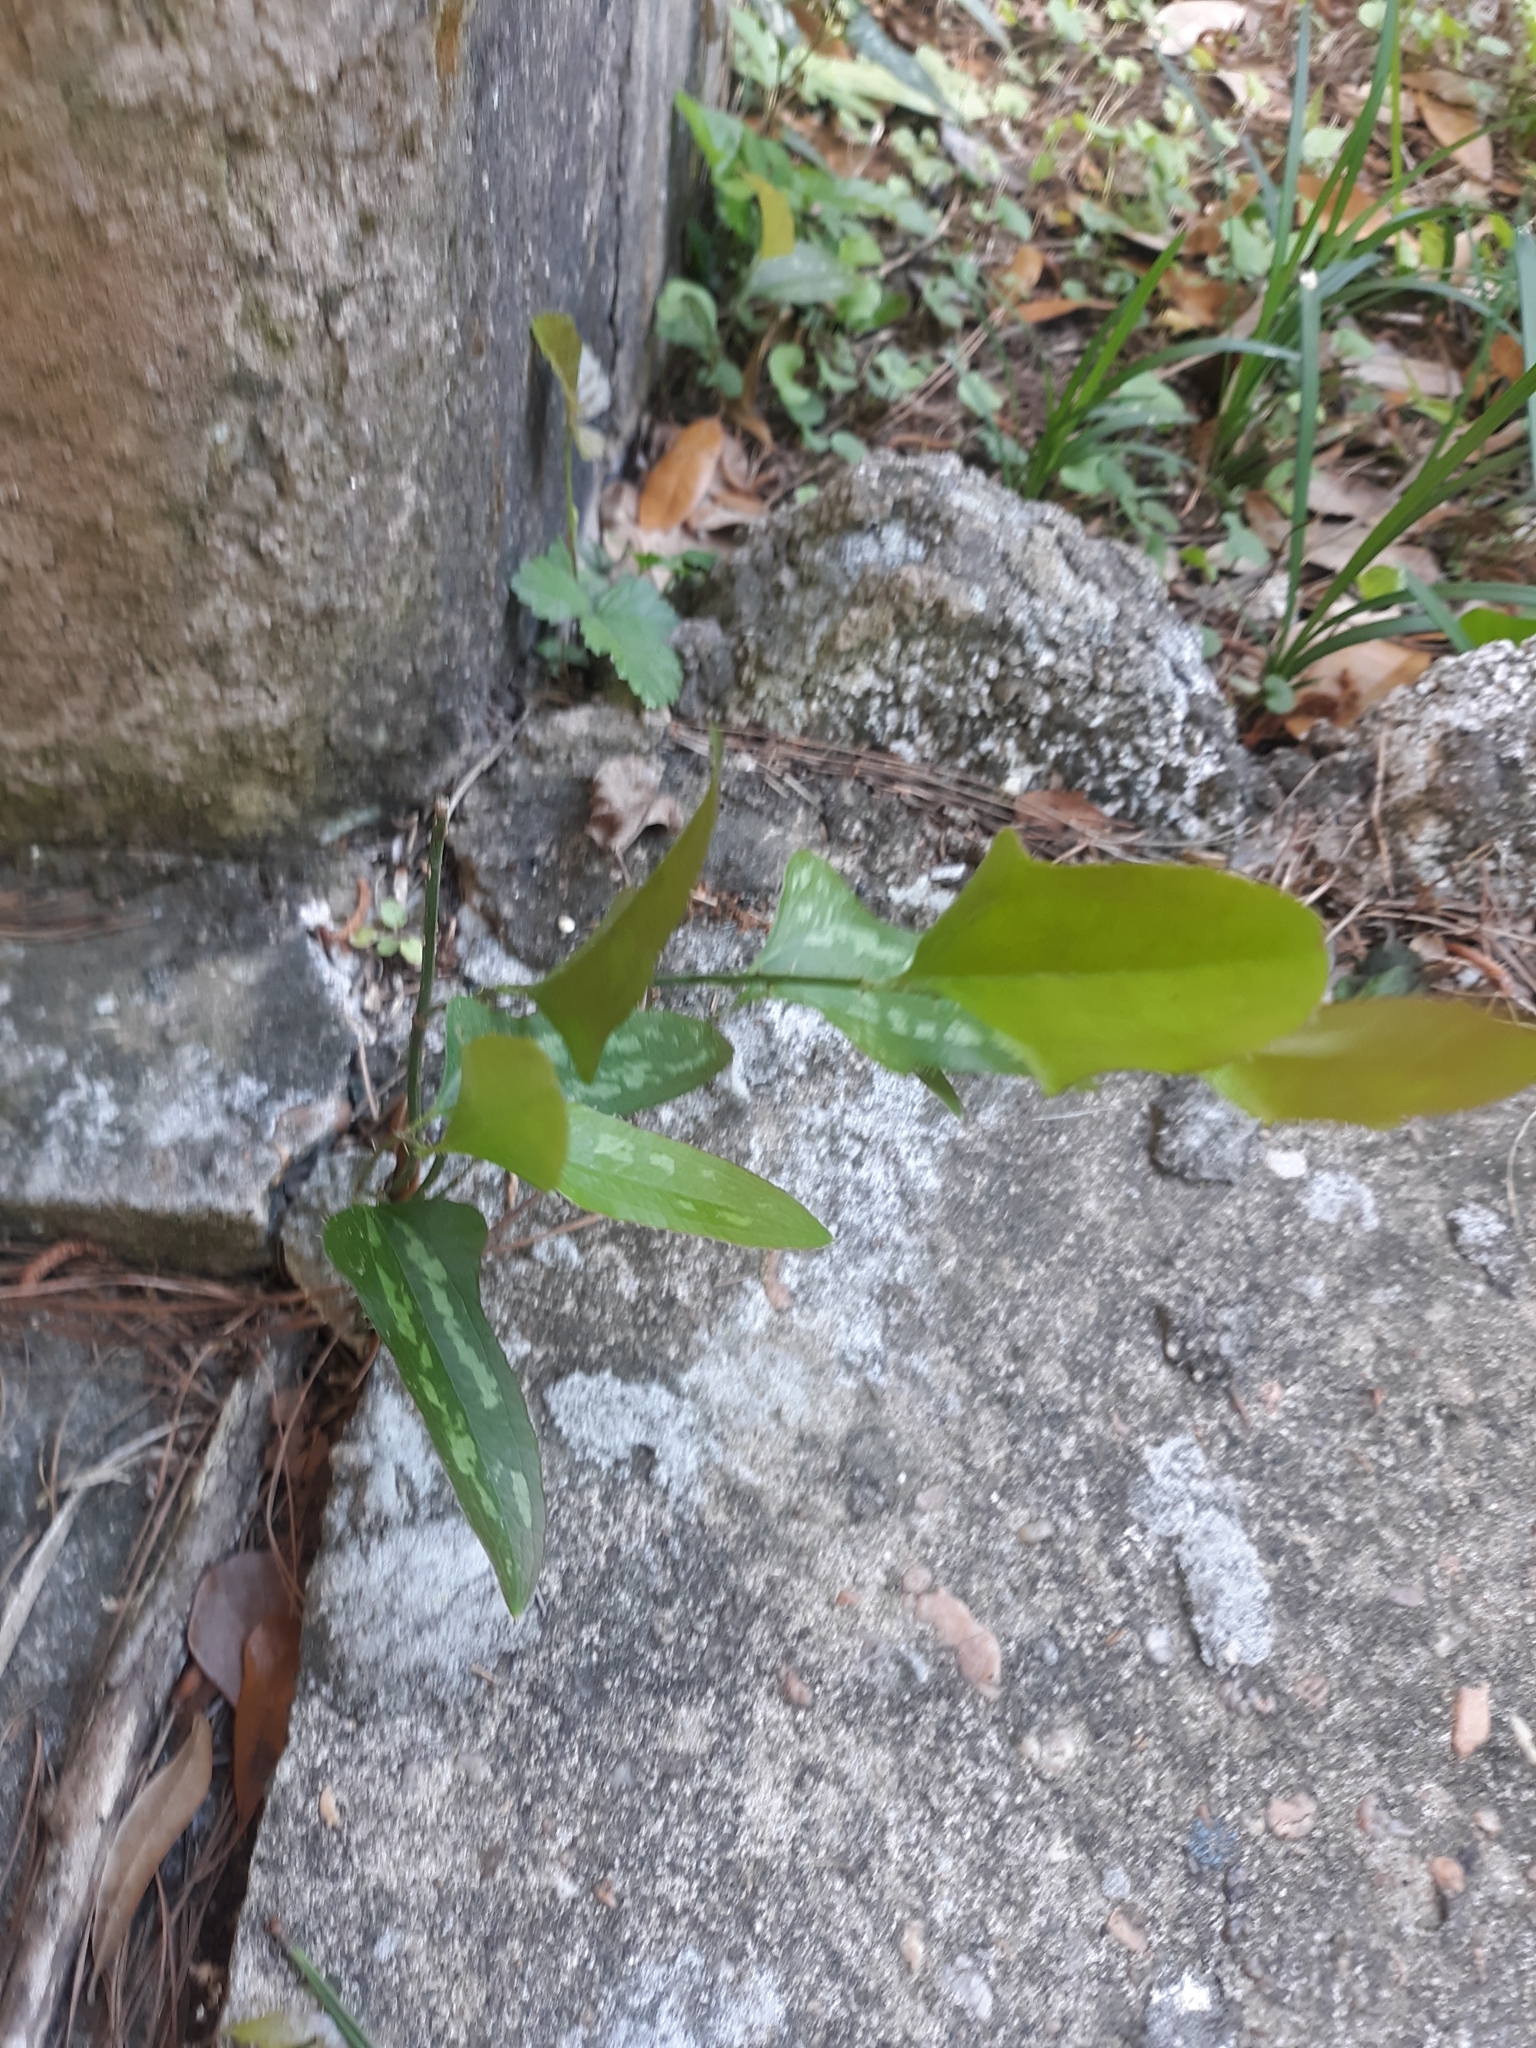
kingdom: Plantae
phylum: Tracheophyta
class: Liliopsida
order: Liliales
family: Smilacaceae
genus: Smilax
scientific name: Smilax bona-nox
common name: Catbrier
